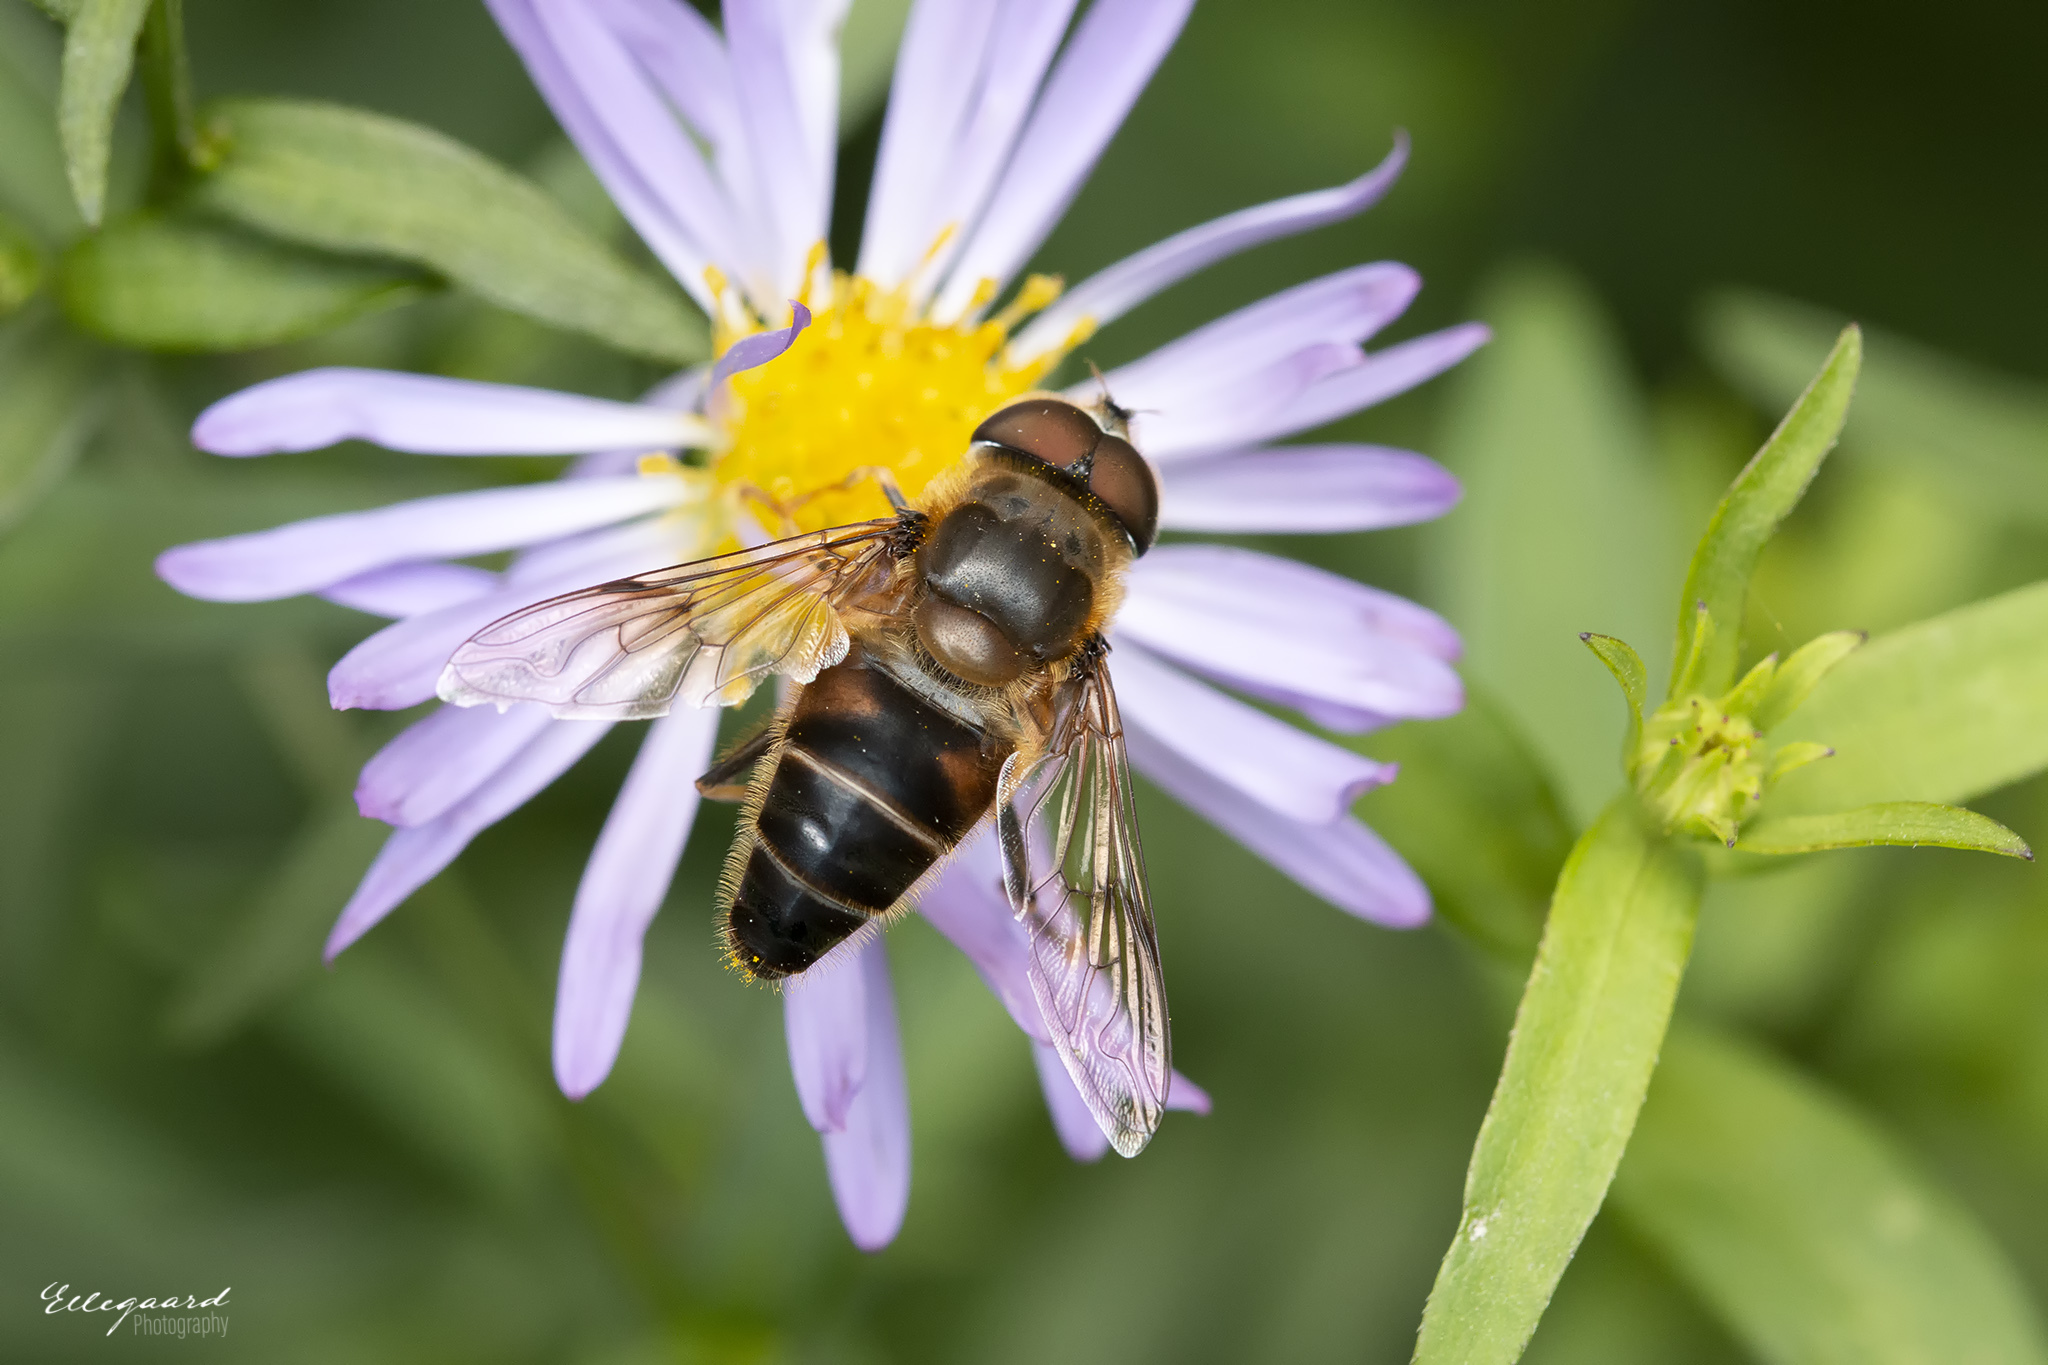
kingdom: Animalia
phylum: Arthropoda
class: Insecta
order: Diptera
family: Syrphidae
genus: Eristalis
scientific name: Eristalis pertinax
